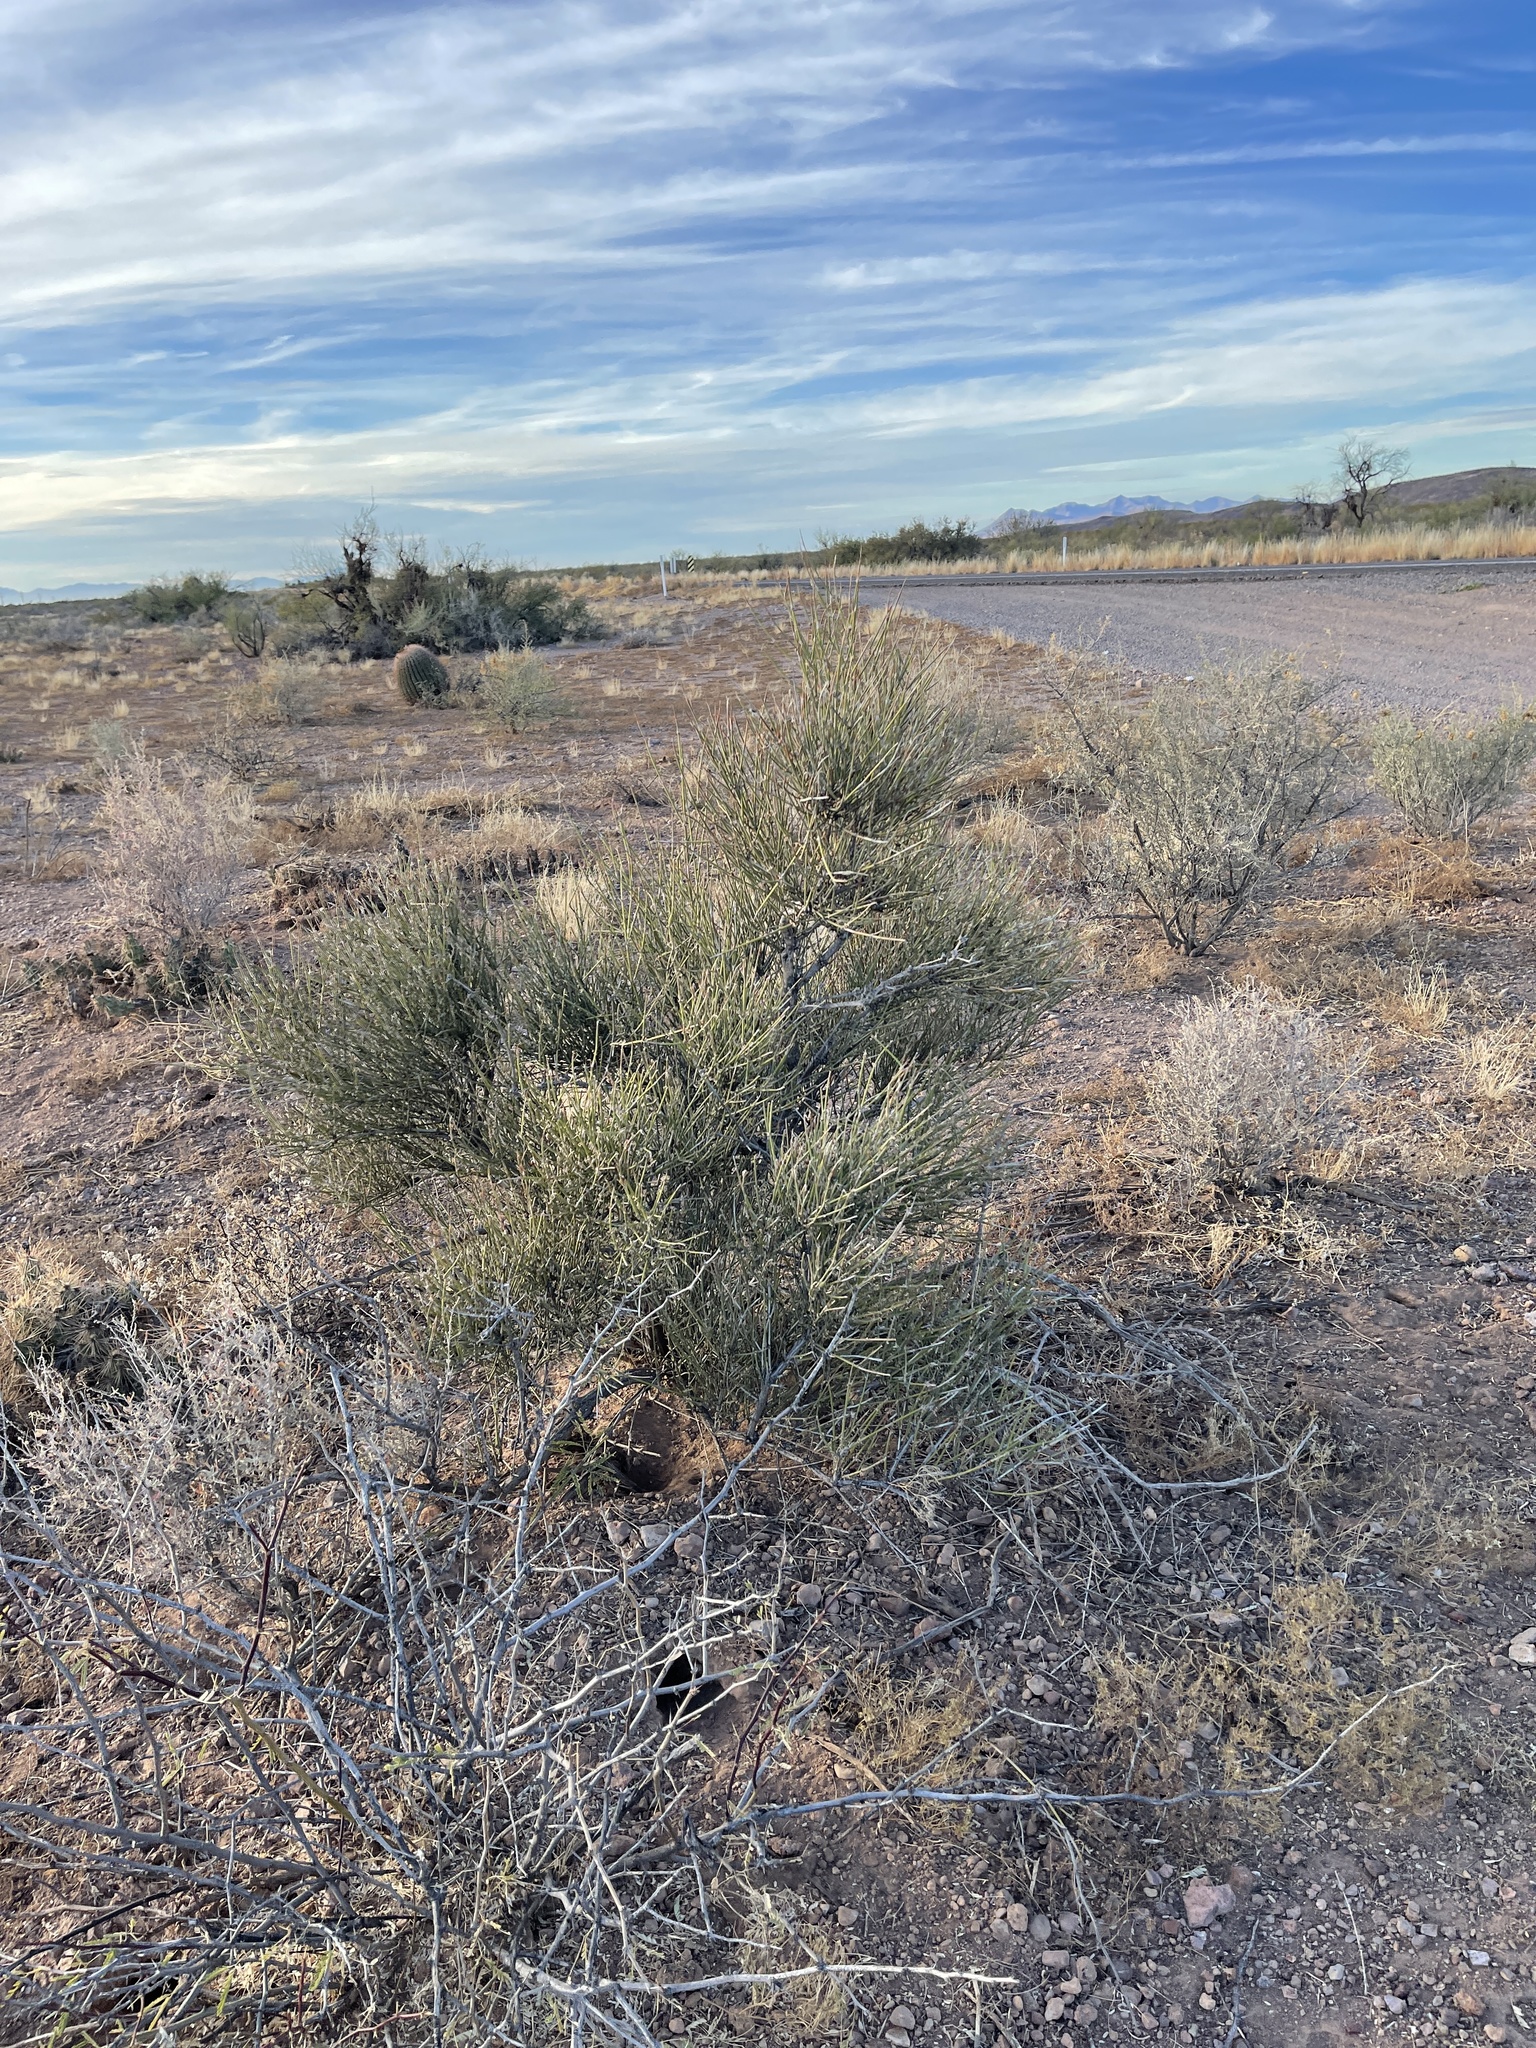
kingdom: Plantae
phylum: Tracheophyta
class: Gnetopsida
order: Ephedrales
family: Ephedraceae
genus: Ephedra
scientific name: Ephedra trifurca
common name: Mexican-tea
